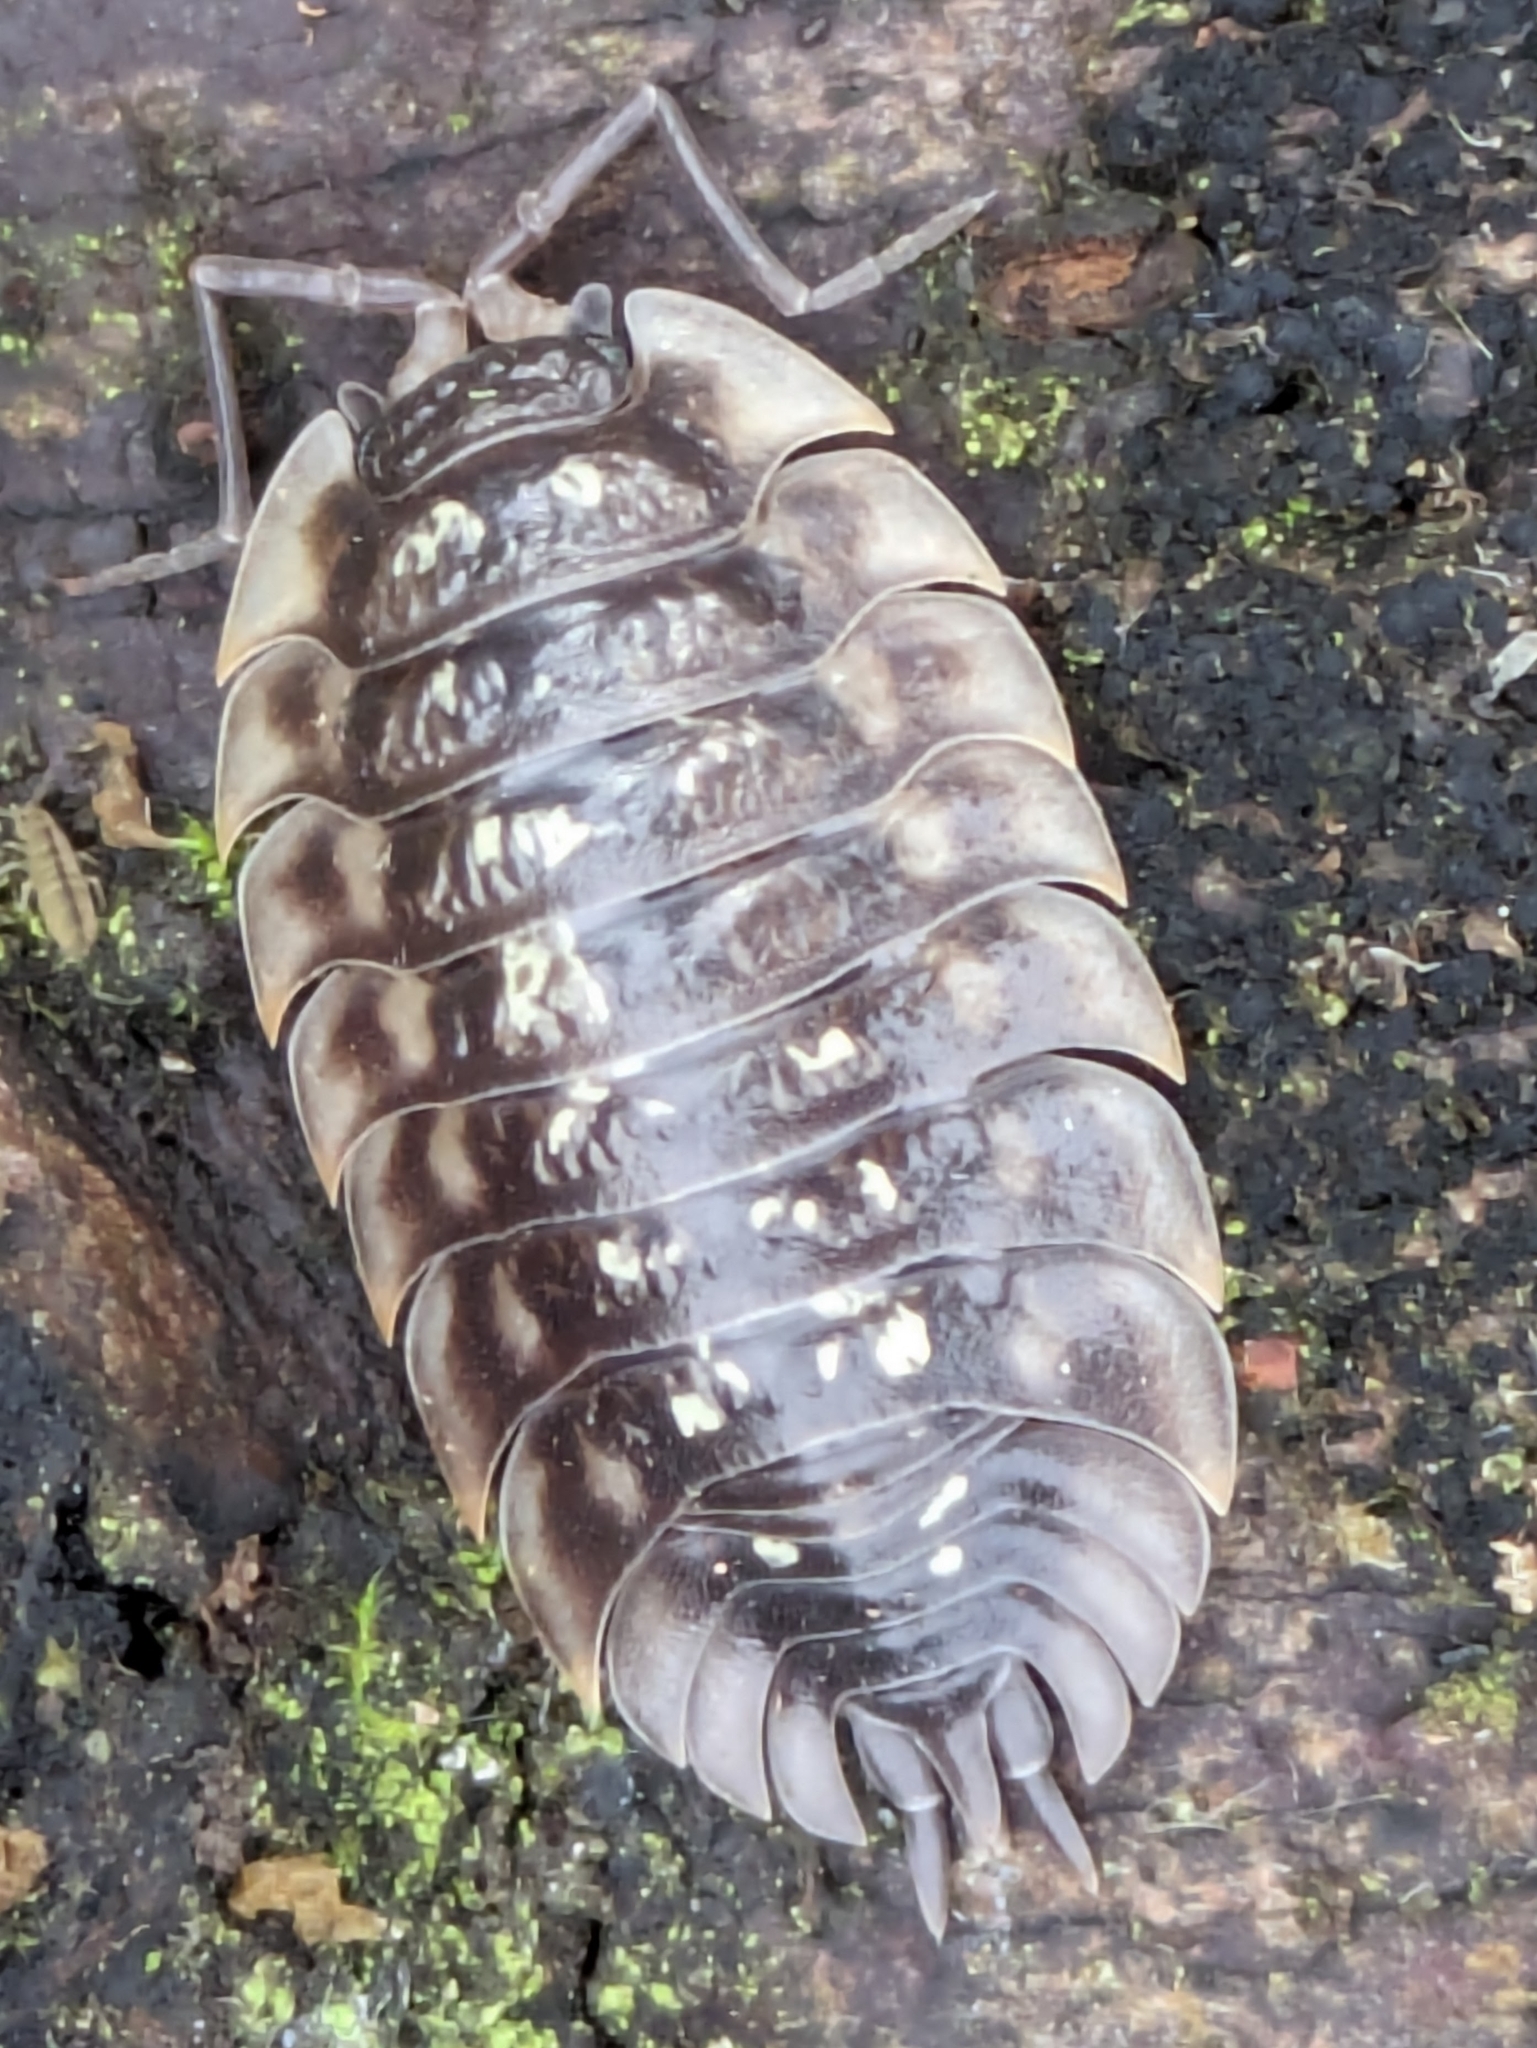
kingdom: Animalia
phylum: Arthropoda
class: Malacostraca
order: Isopoda
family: Oniscidae
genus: Oniscus
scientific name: Oniscus asellus
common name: Common shiny woodlouse
